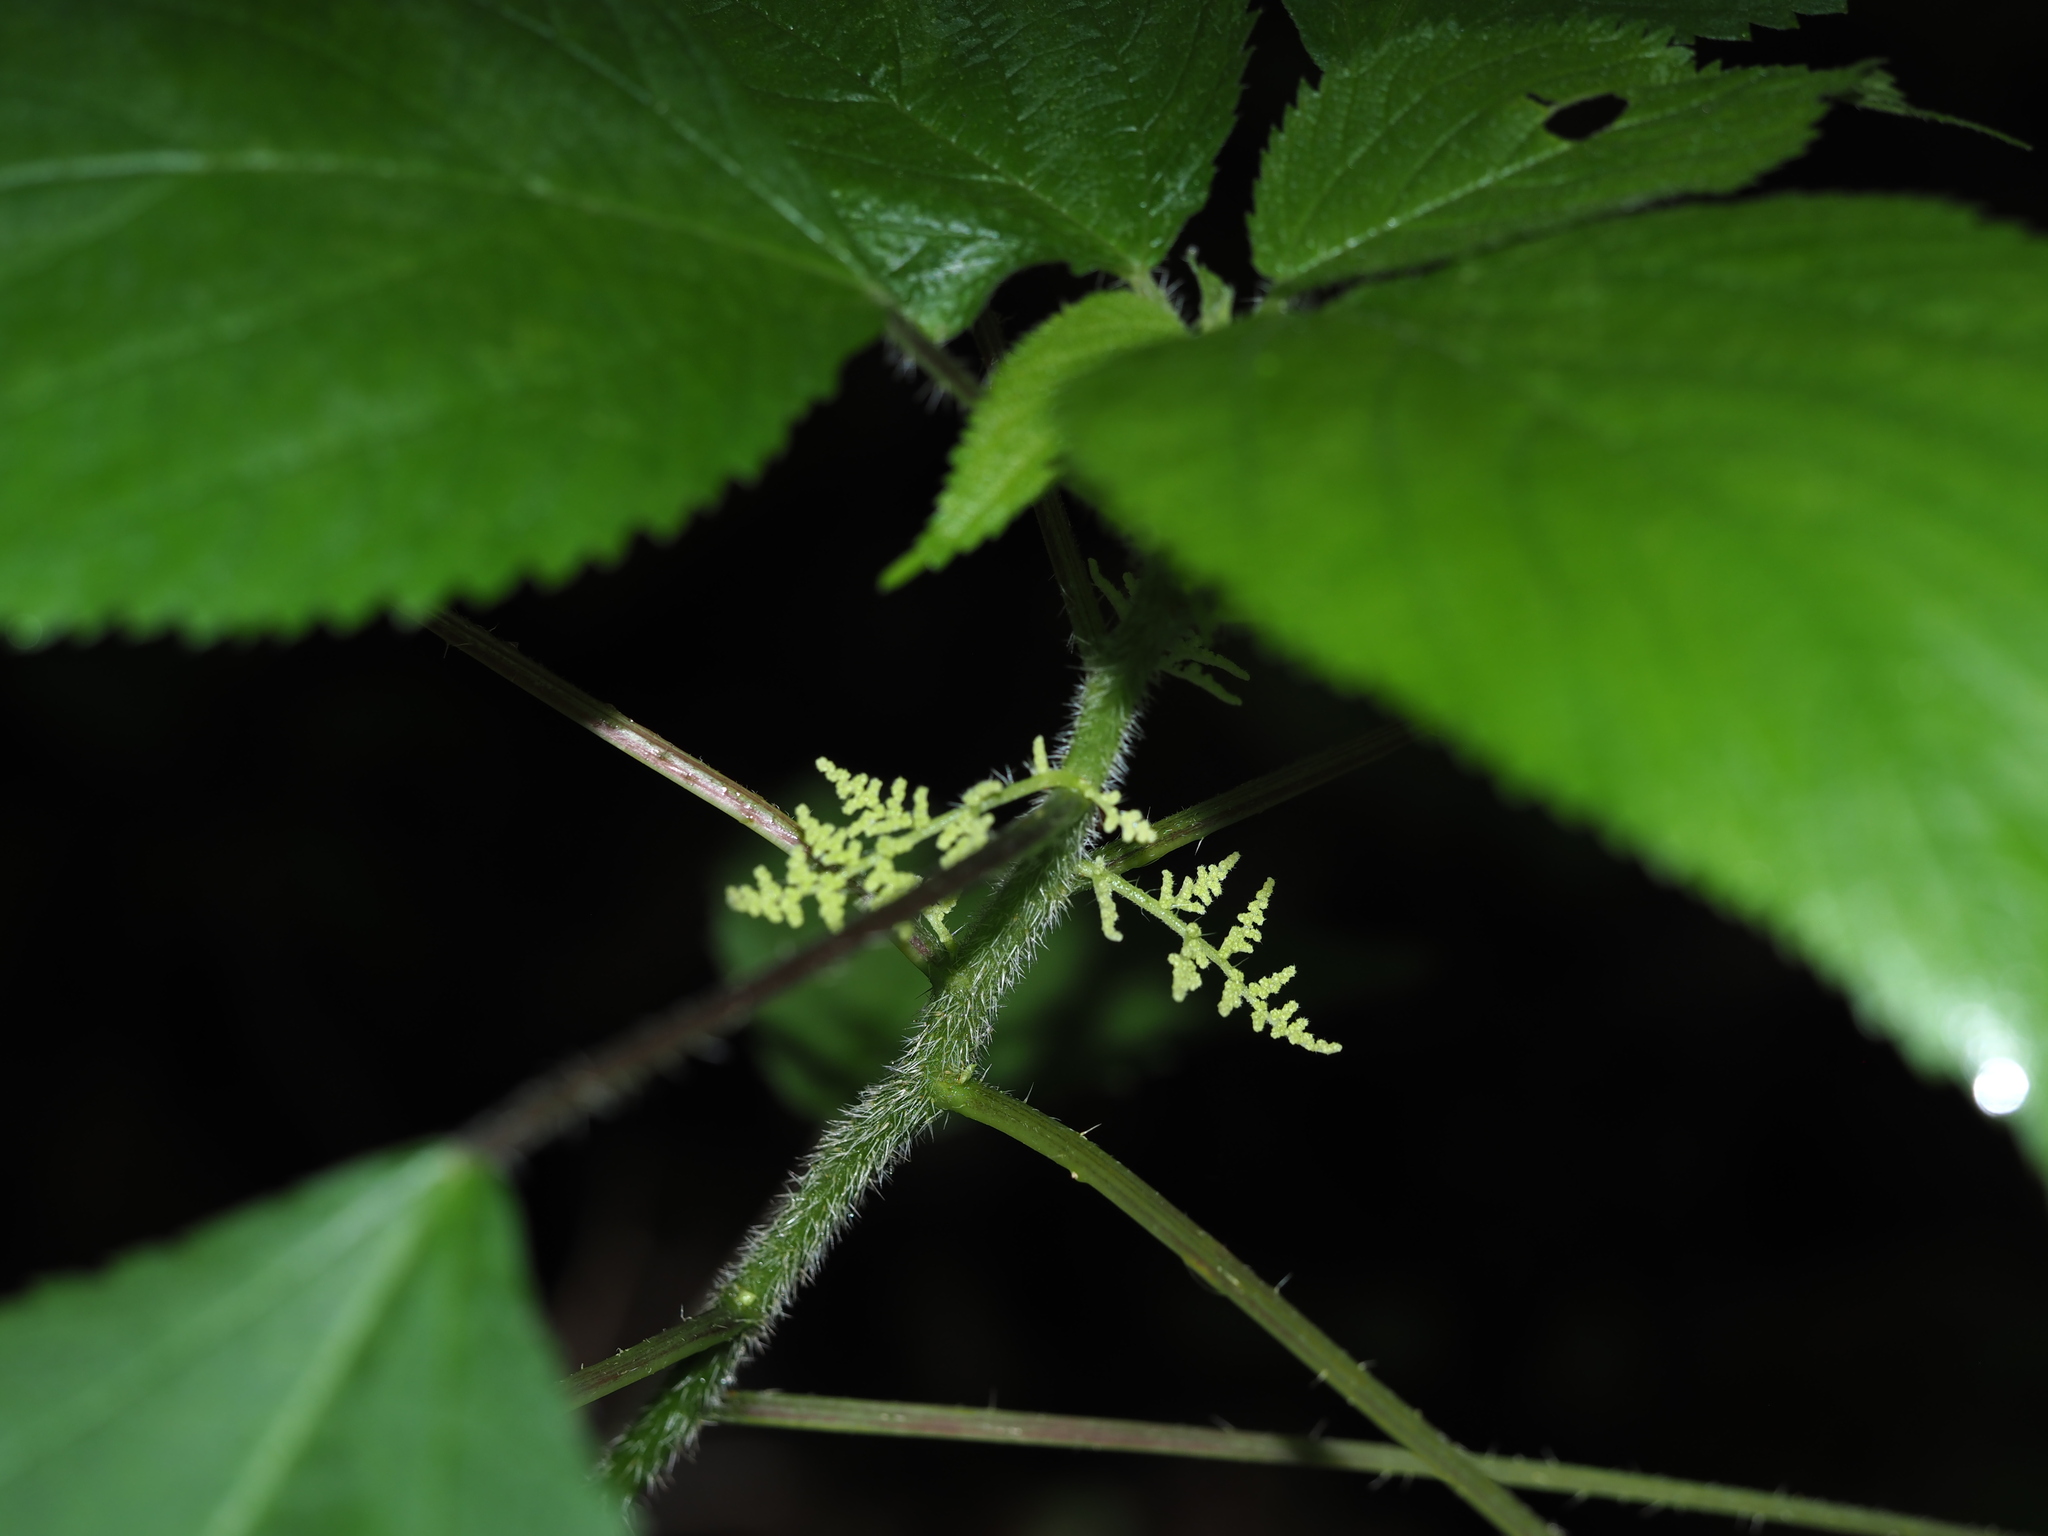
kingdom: Plantae
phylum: Tracheophyta
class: Magnoliopsida
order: Rosales
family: Urticaceae
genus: Laportea
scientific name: Laportea canadensis
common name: Canada nettle
